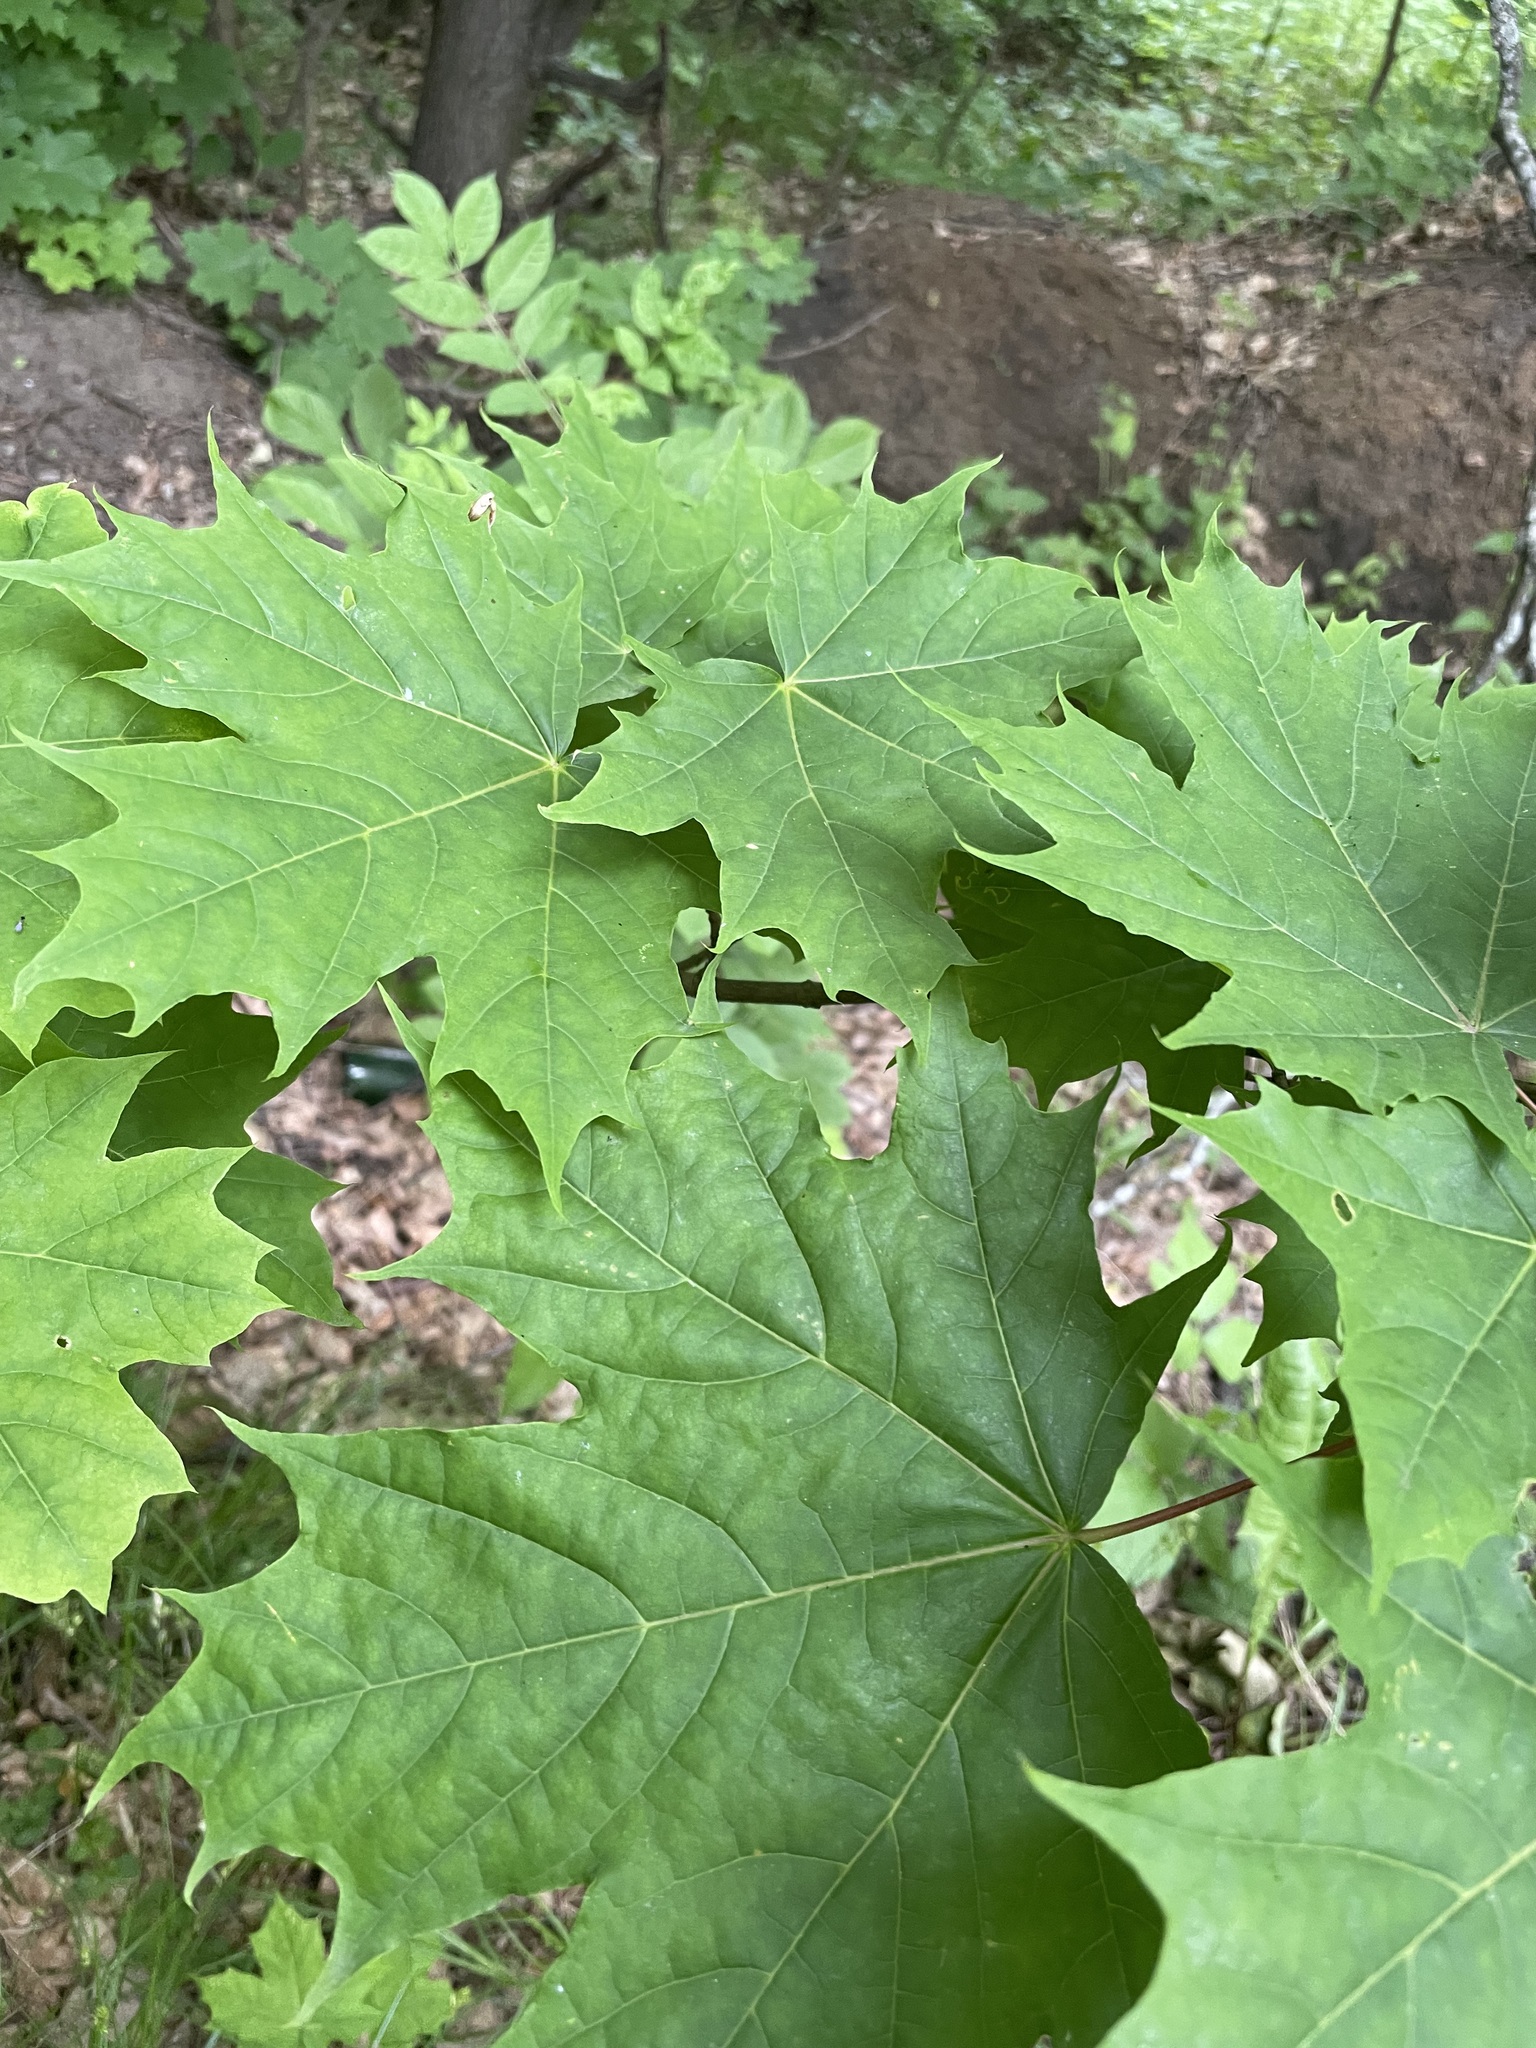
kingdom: Plantae
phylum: Tracheophyta
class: Magnoliopsida
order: Sapindales
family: Sapindaceae
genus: Acer
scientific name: Acer platanoides
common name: Norway maple
